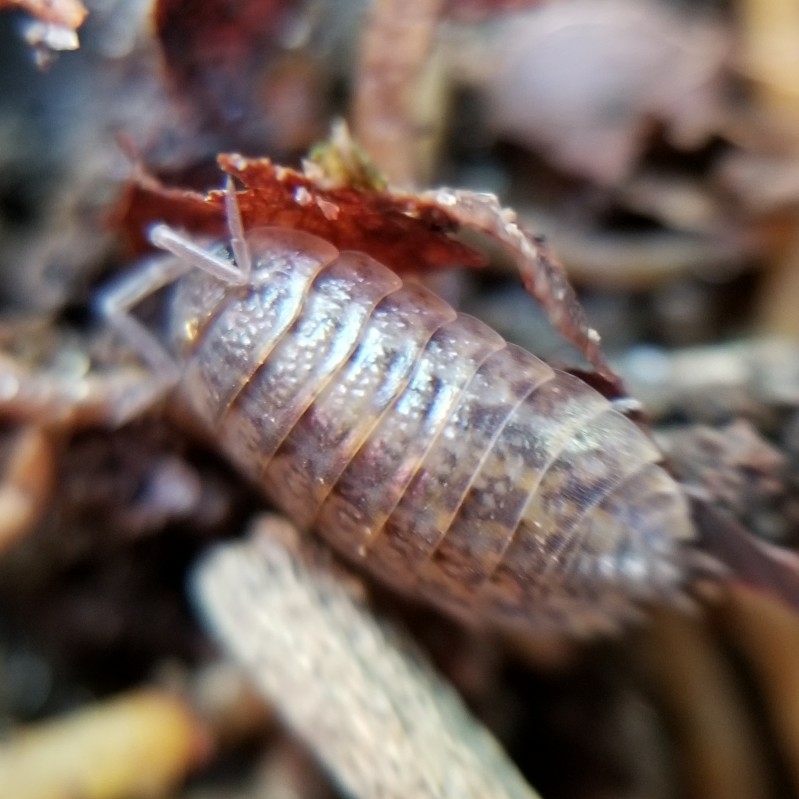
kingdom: Animalia
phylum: Arthropoda
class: Malacostraca
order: Isopoda
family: Trachelipodidae
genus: Trachelipus
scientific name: Trachelipus rathkii
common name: Isopod
